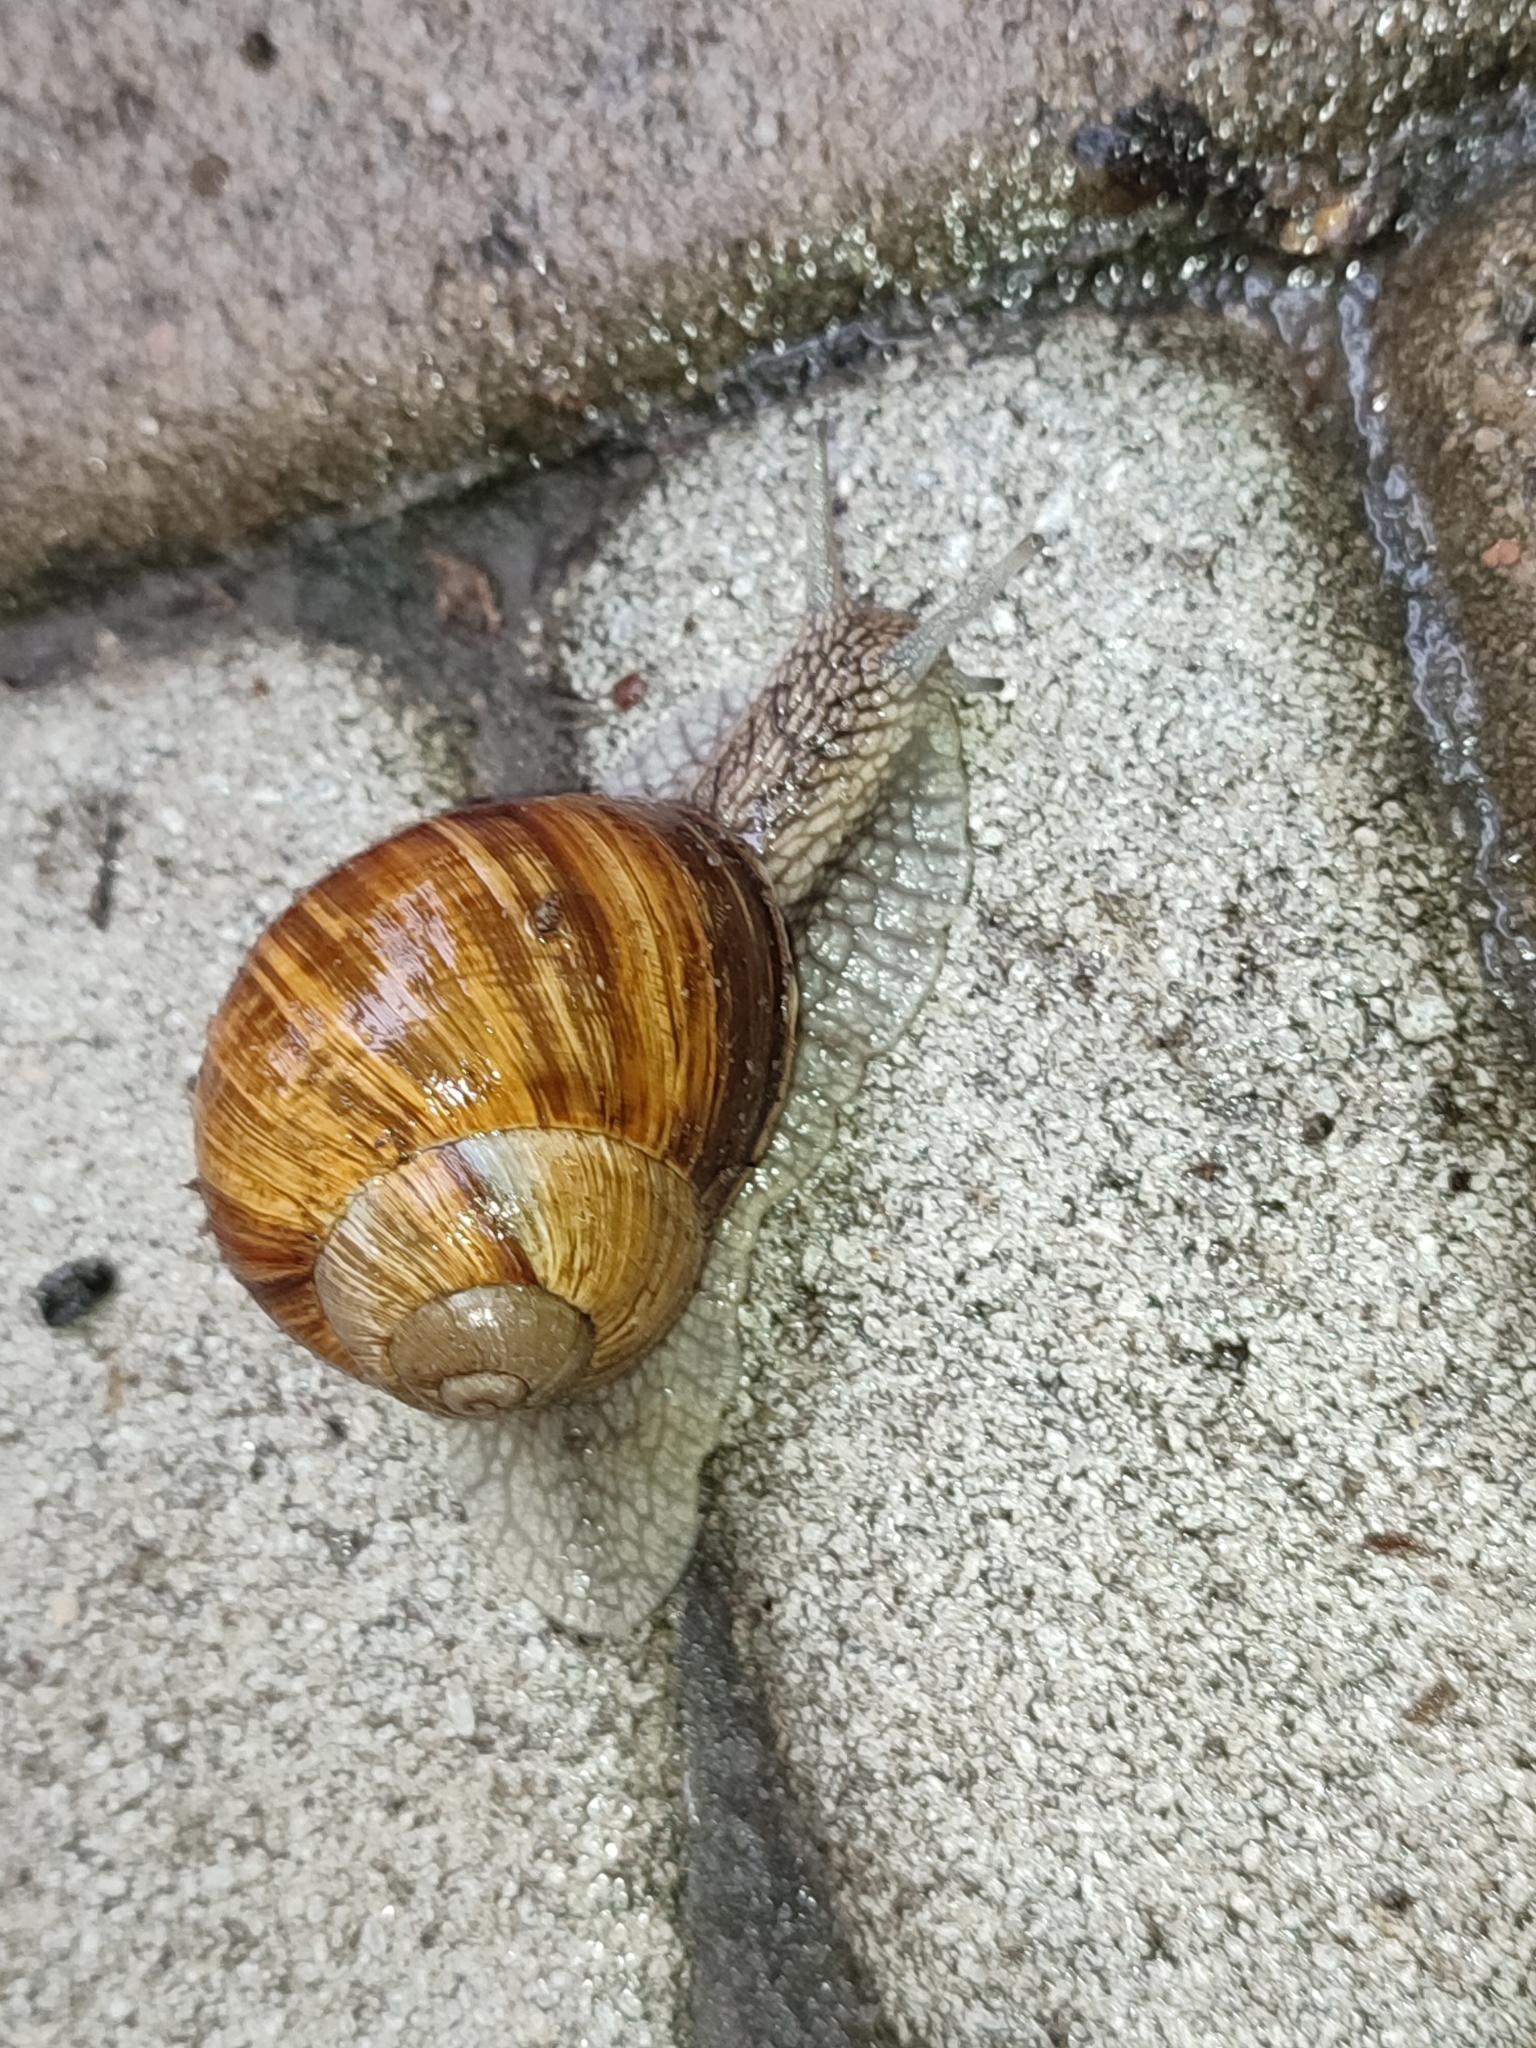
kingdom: Animalia
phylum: Mollusca
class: Gastropoda
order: Stylommatophora
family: Helicidae
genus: Helix
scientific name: Helix pomatia
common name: Roman snail
